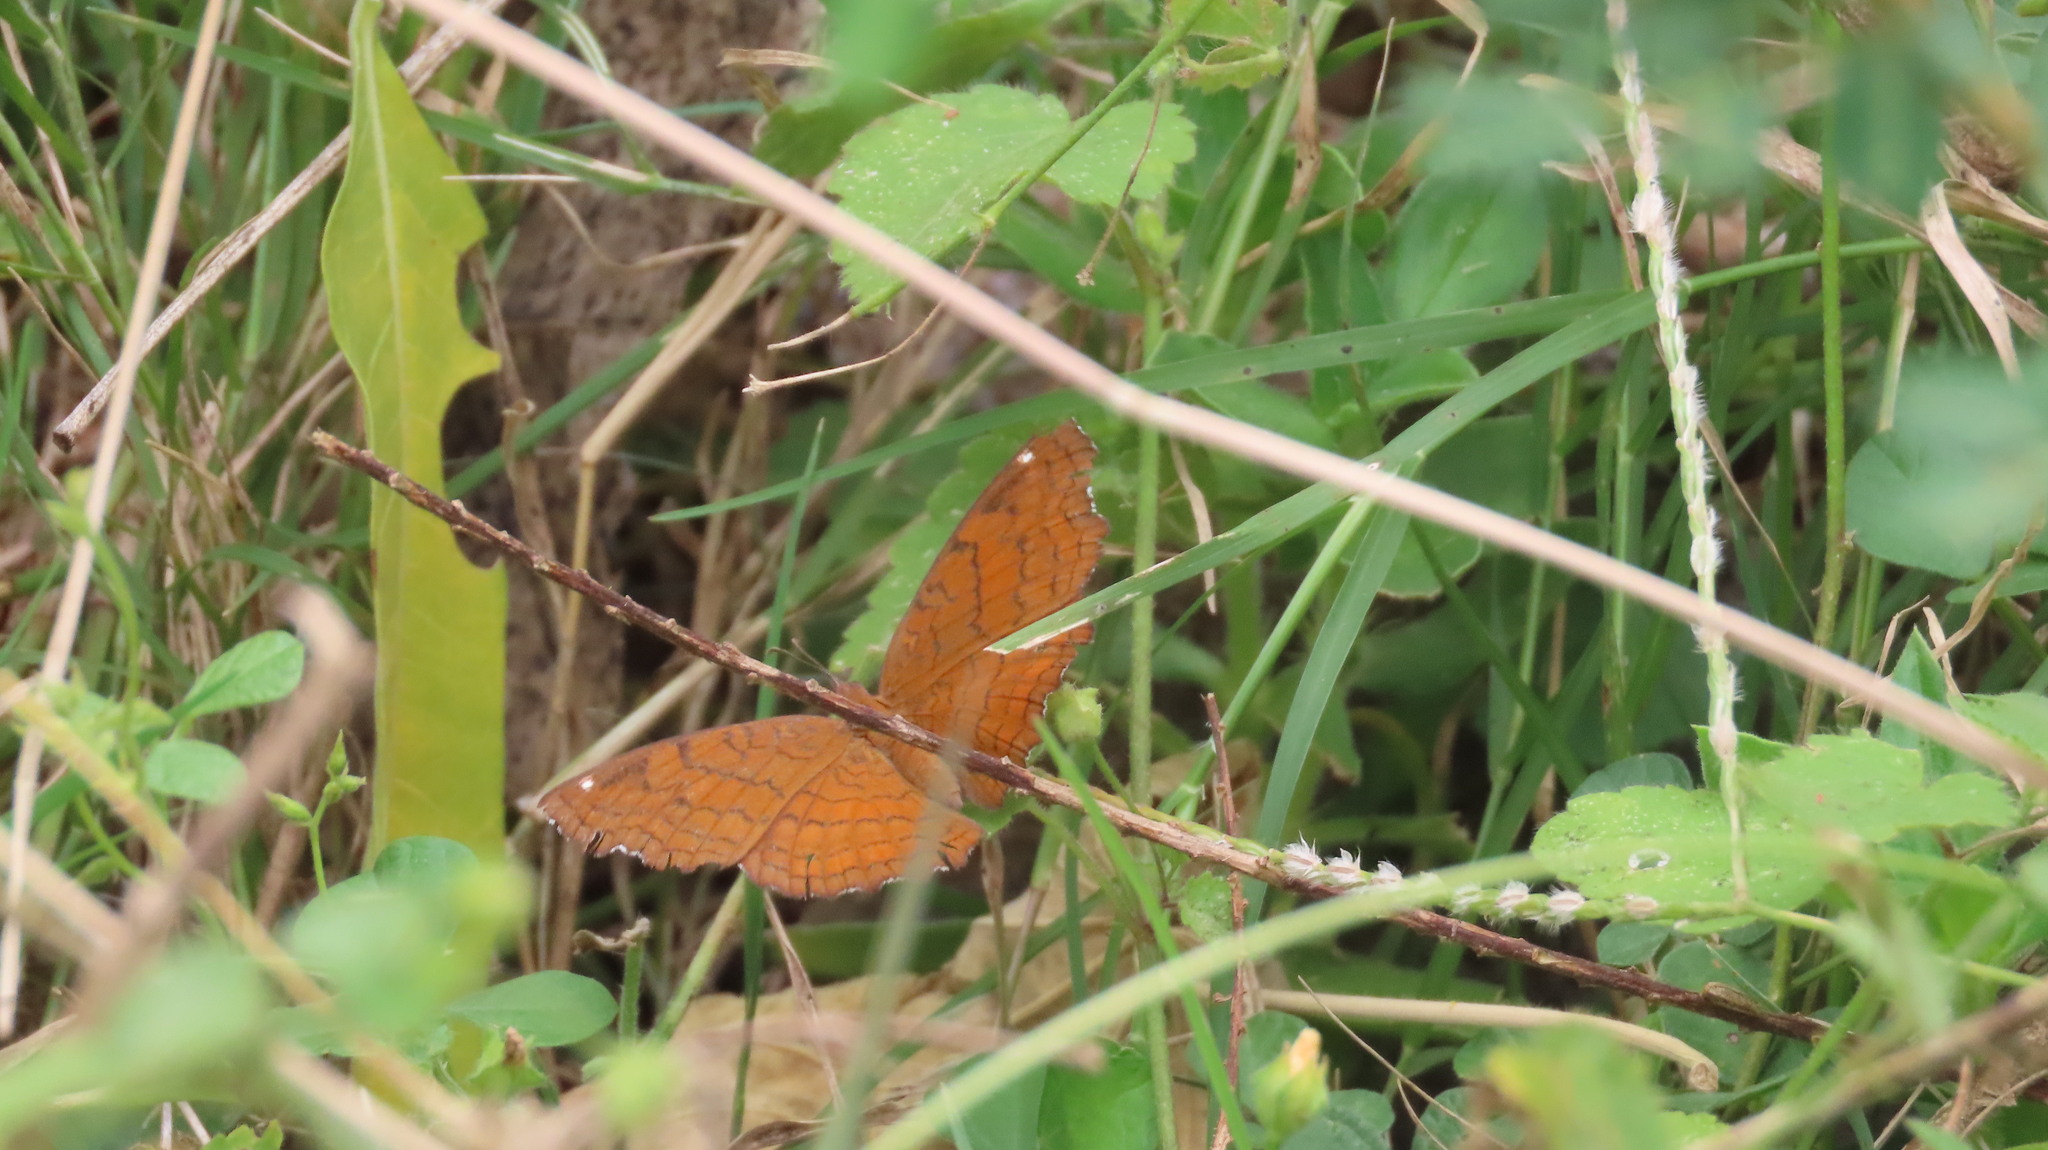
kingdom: Animalia
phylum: Arthropoda
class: Insecta
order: Lepidoptera
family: Nymphalidae
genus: Ariadne
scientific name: Ariadne ariadne
